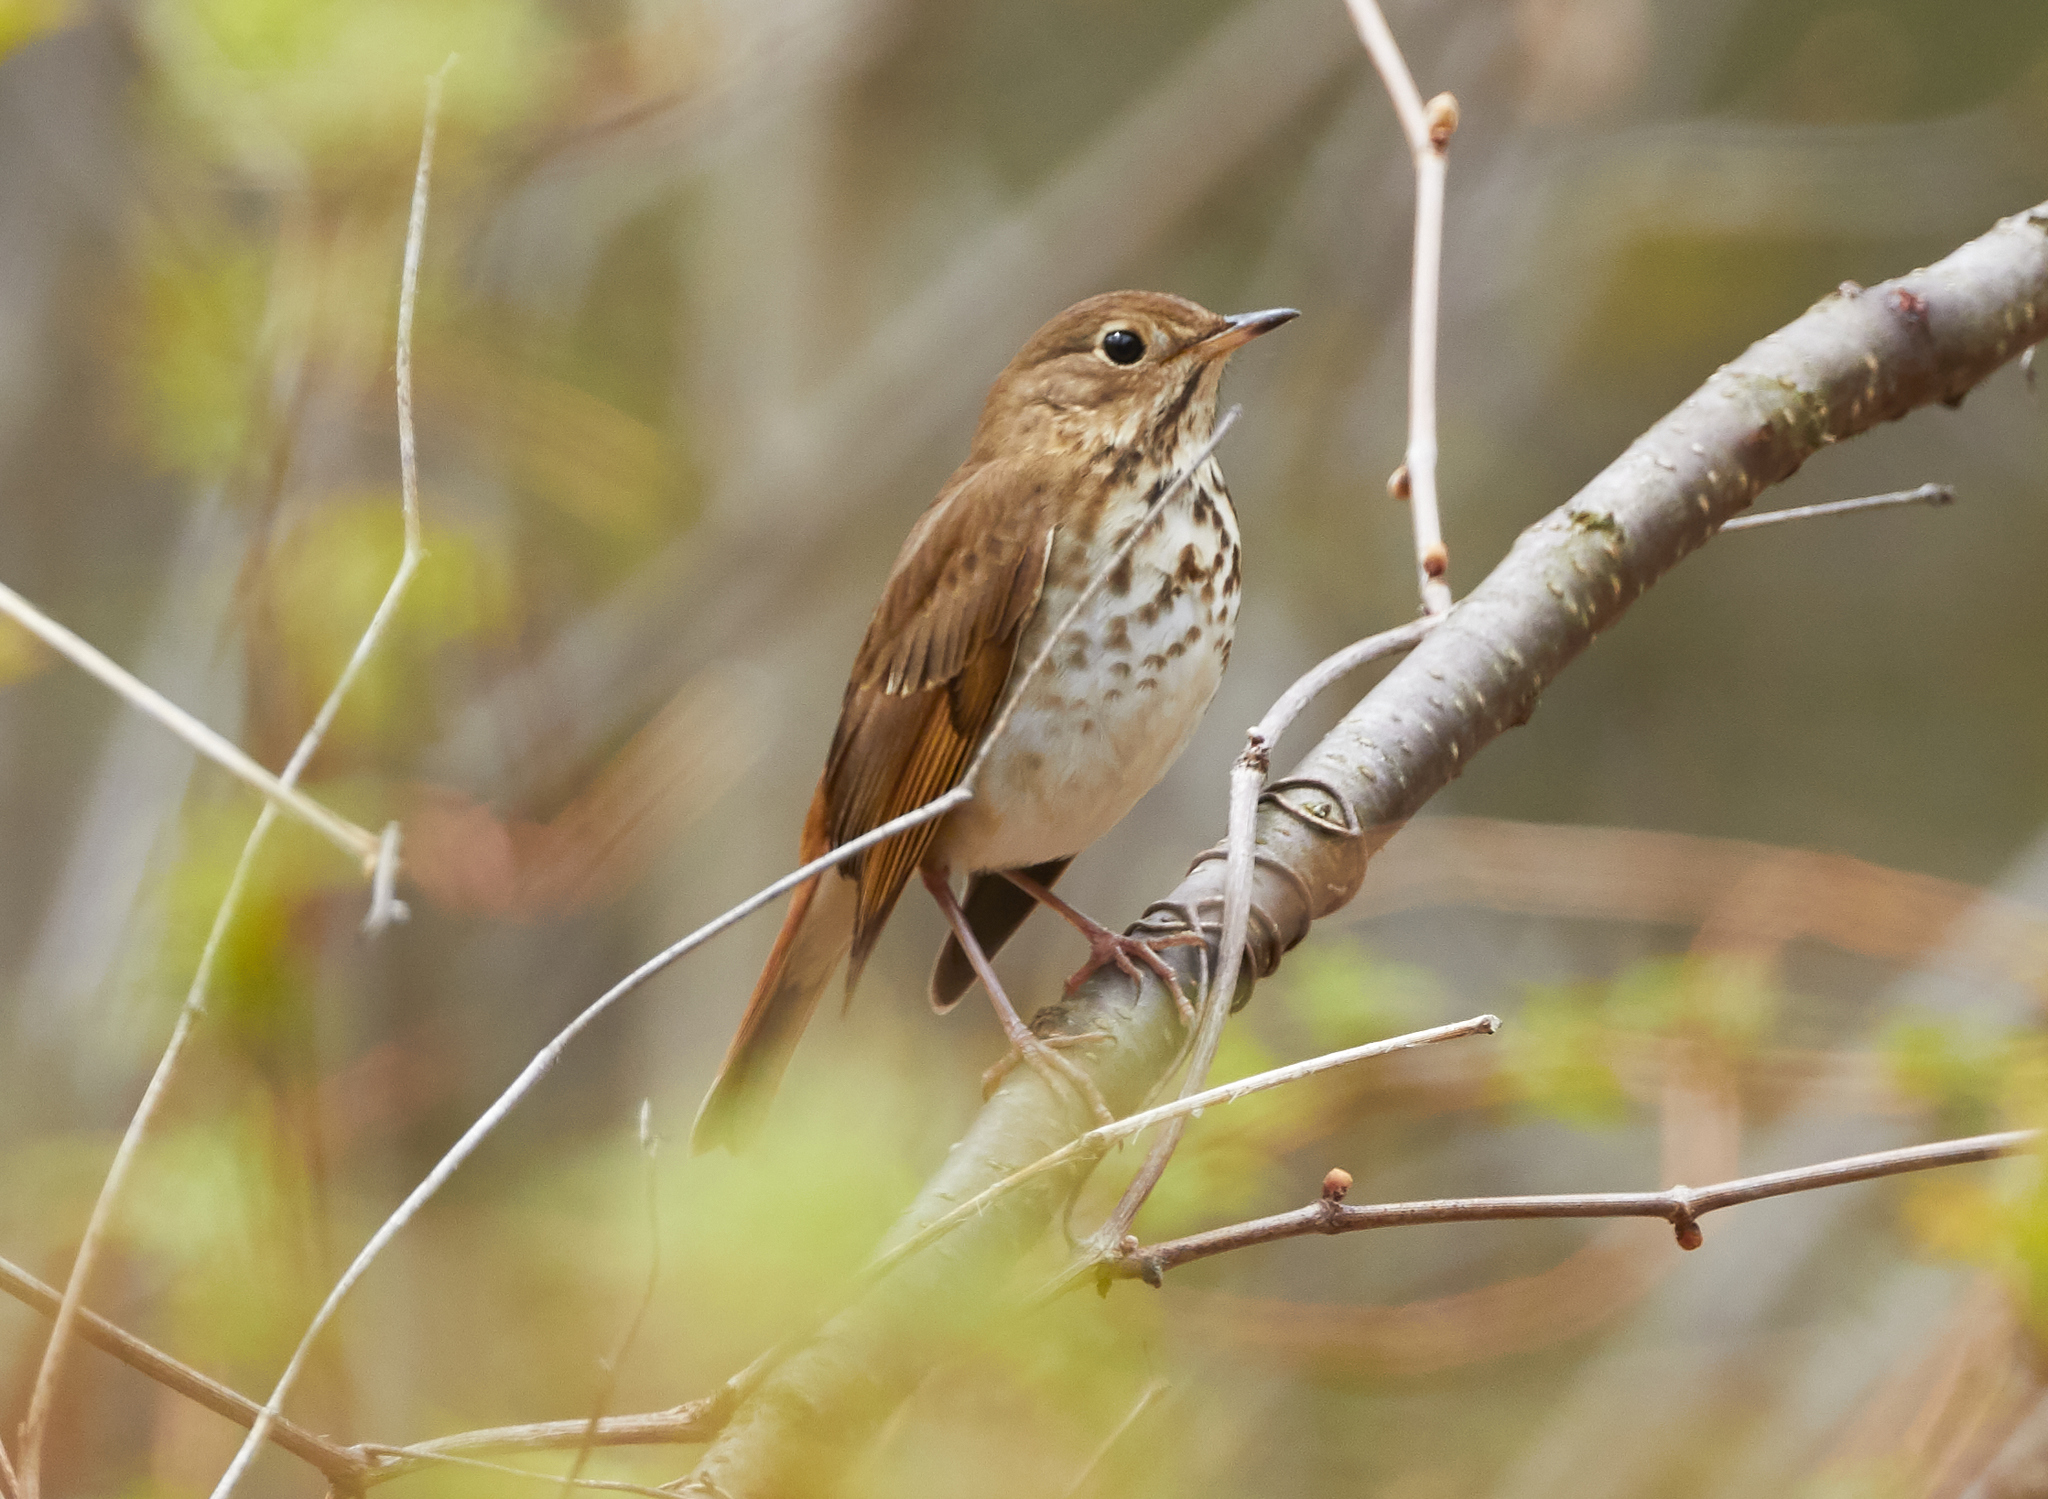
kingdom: Animalia
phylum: Chordata
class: Aves
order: Passeriformes
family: Turdidae
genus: Catharus
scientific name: Catharus guttatus
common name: Hermit thrush
